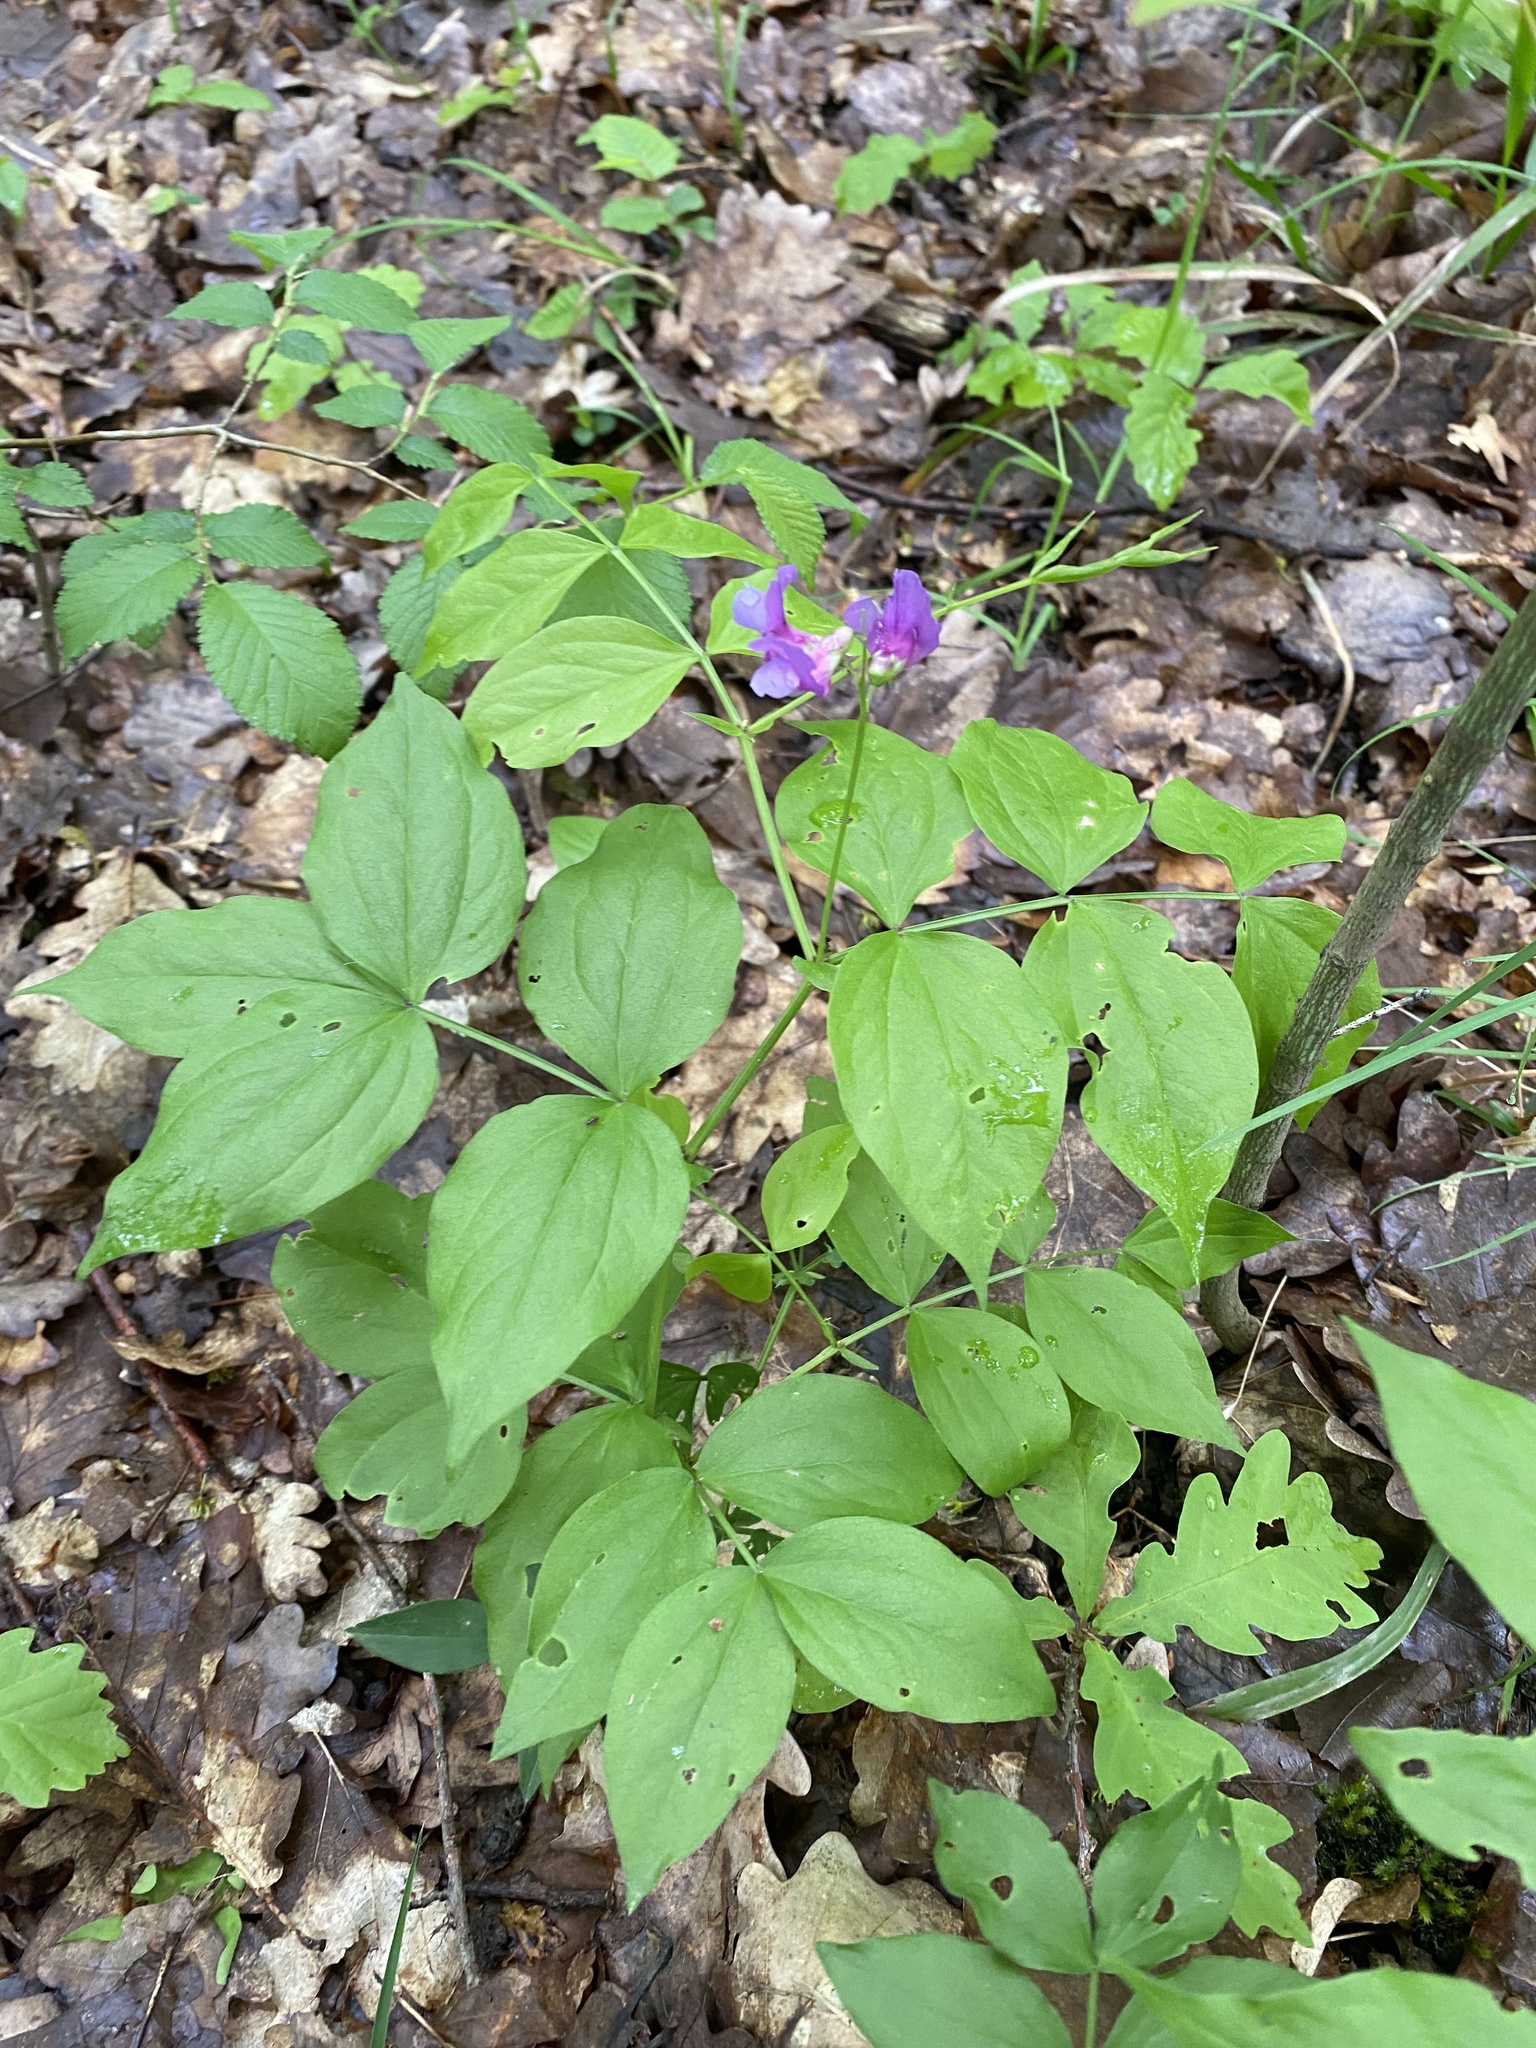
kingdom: Plantae
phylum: Tracheophyta
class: Magnoliopsida
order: Fabales
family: Fabaceae
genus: Lathyrus
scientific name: Lathyrus vernus
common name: Spring pea
